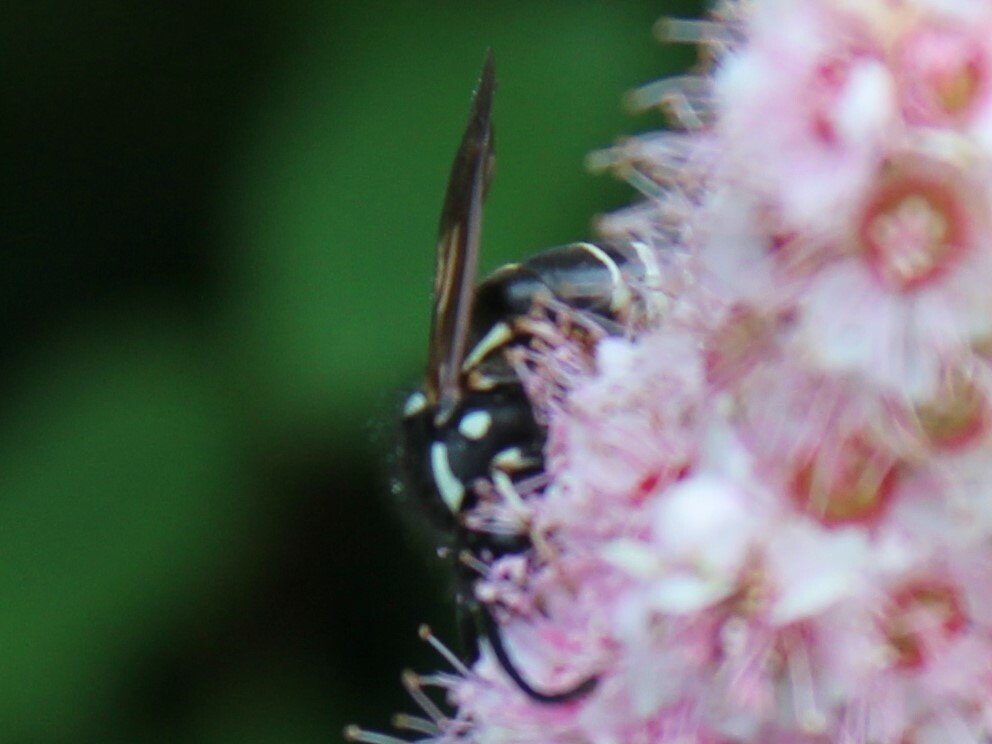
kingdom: Animalia
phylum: Arthropoda
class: Insecta
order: Hymenoptera
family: Vespidae
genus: Dolichovespula
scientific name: Dolichovespula adulterina
